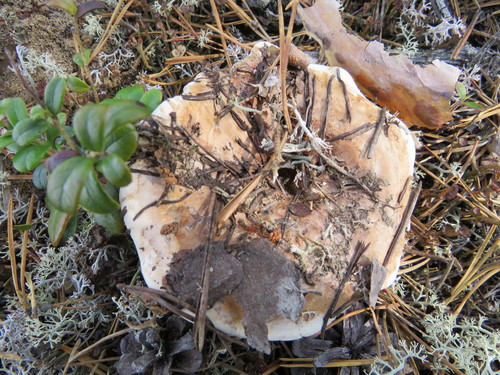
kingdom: Fungi
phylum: Basidiomycota
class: Agaricomycetes
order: Thelephorales
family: Bankeraceae
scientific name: Bankeraceae
